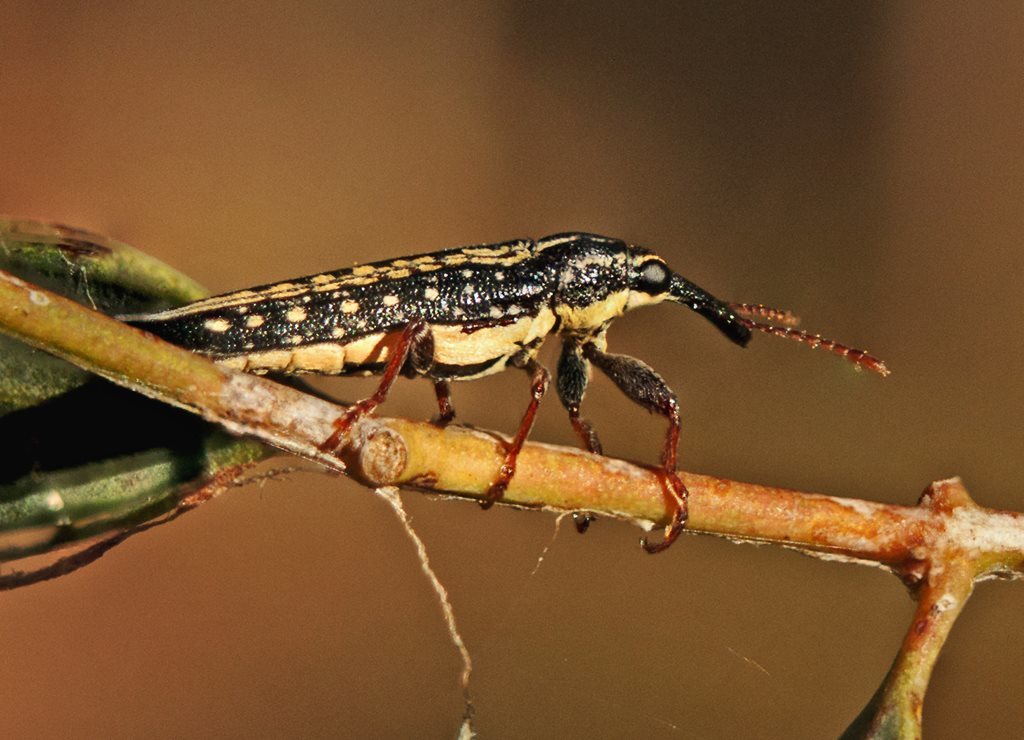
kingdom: Animalia
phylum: Arthropoda
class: Insecta
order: Coleoptera
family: Belidae
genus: Rhinotia
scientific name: Rhinotia lineata
